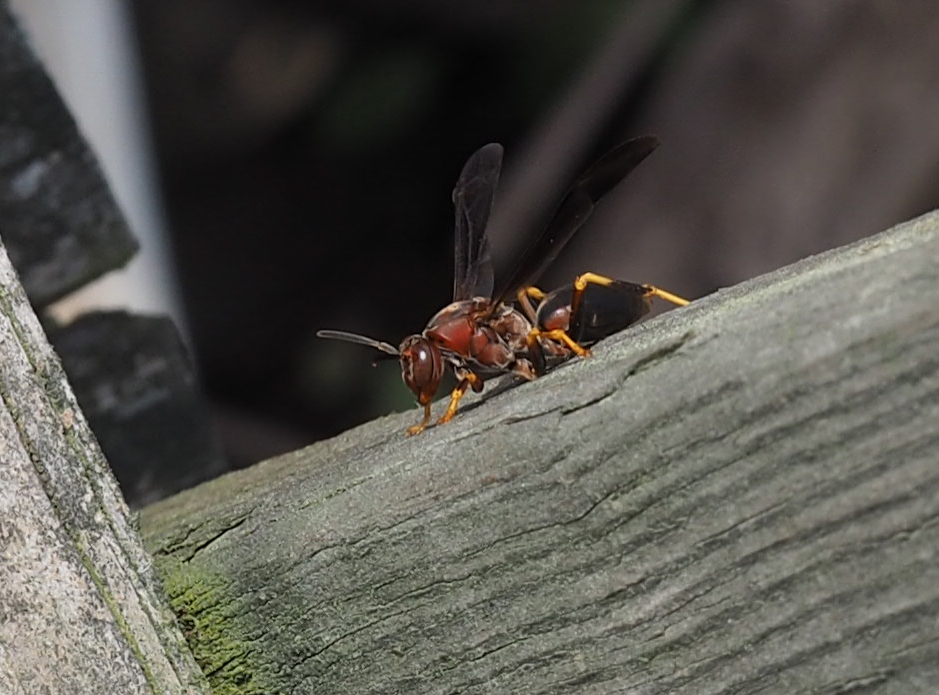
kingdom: Animalia
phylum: Arthropoda
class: Insecta
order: Hymenoptera
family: Vespidae
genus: Fuscopolistes
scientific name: Fuscopolistes
